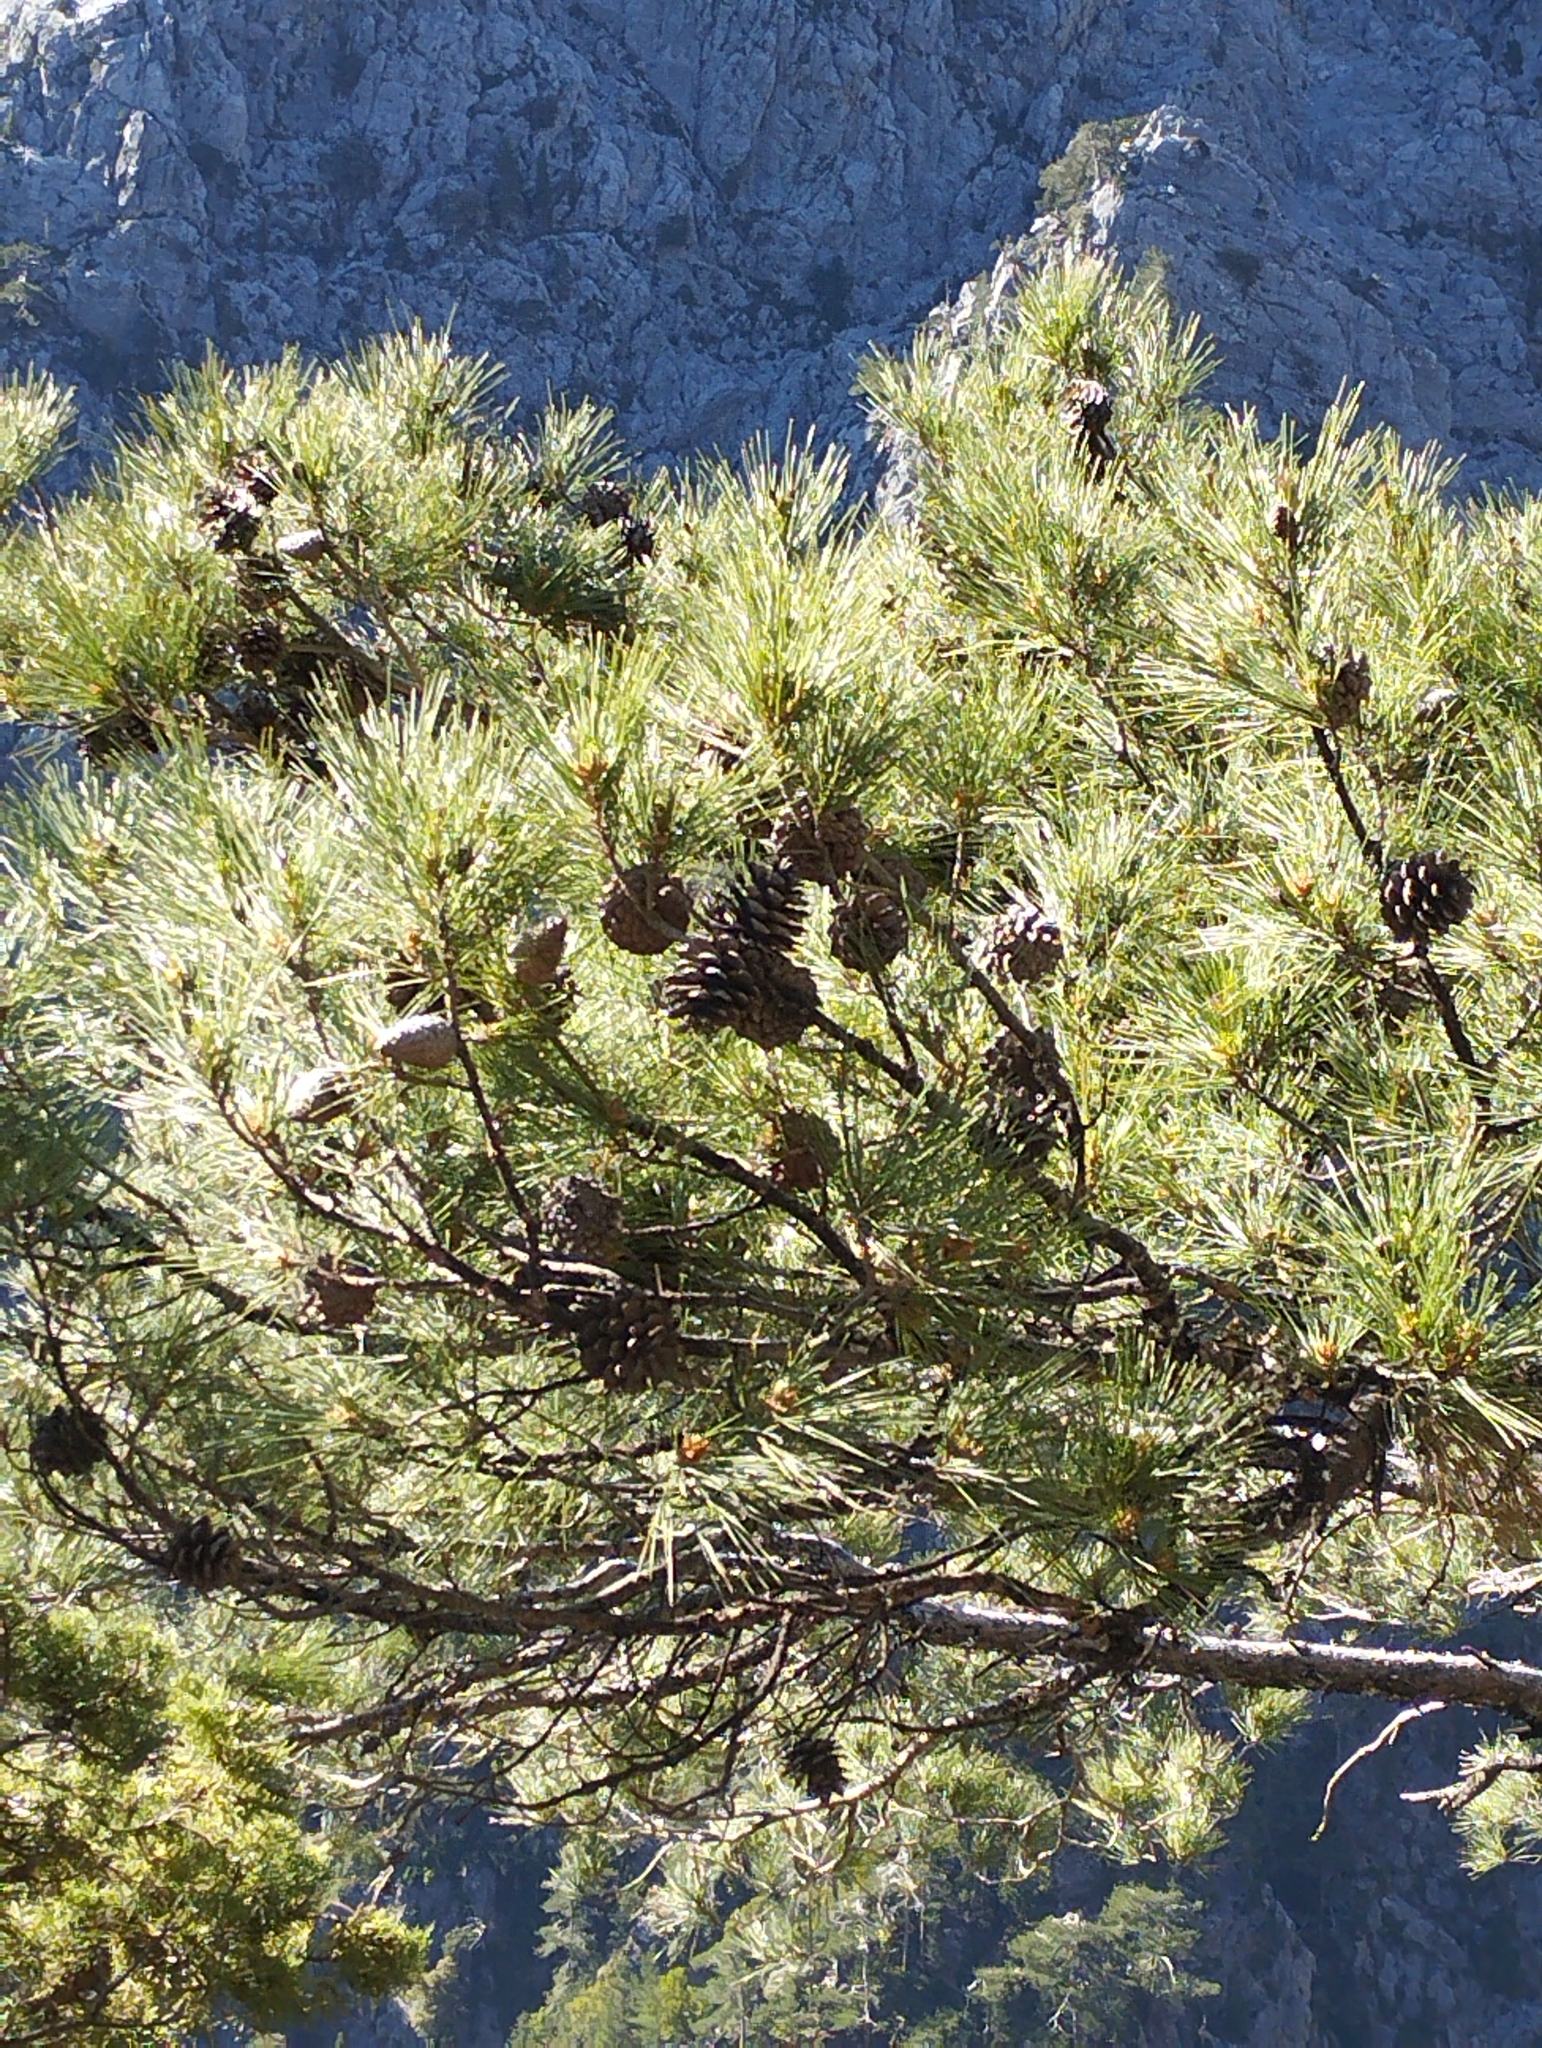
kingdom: Plantae
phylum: Tracheophyta
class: Pinopsida
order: Pinales
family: Pinaceae
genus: Pinus
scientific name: Pinus brutia
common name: Turkish pine
